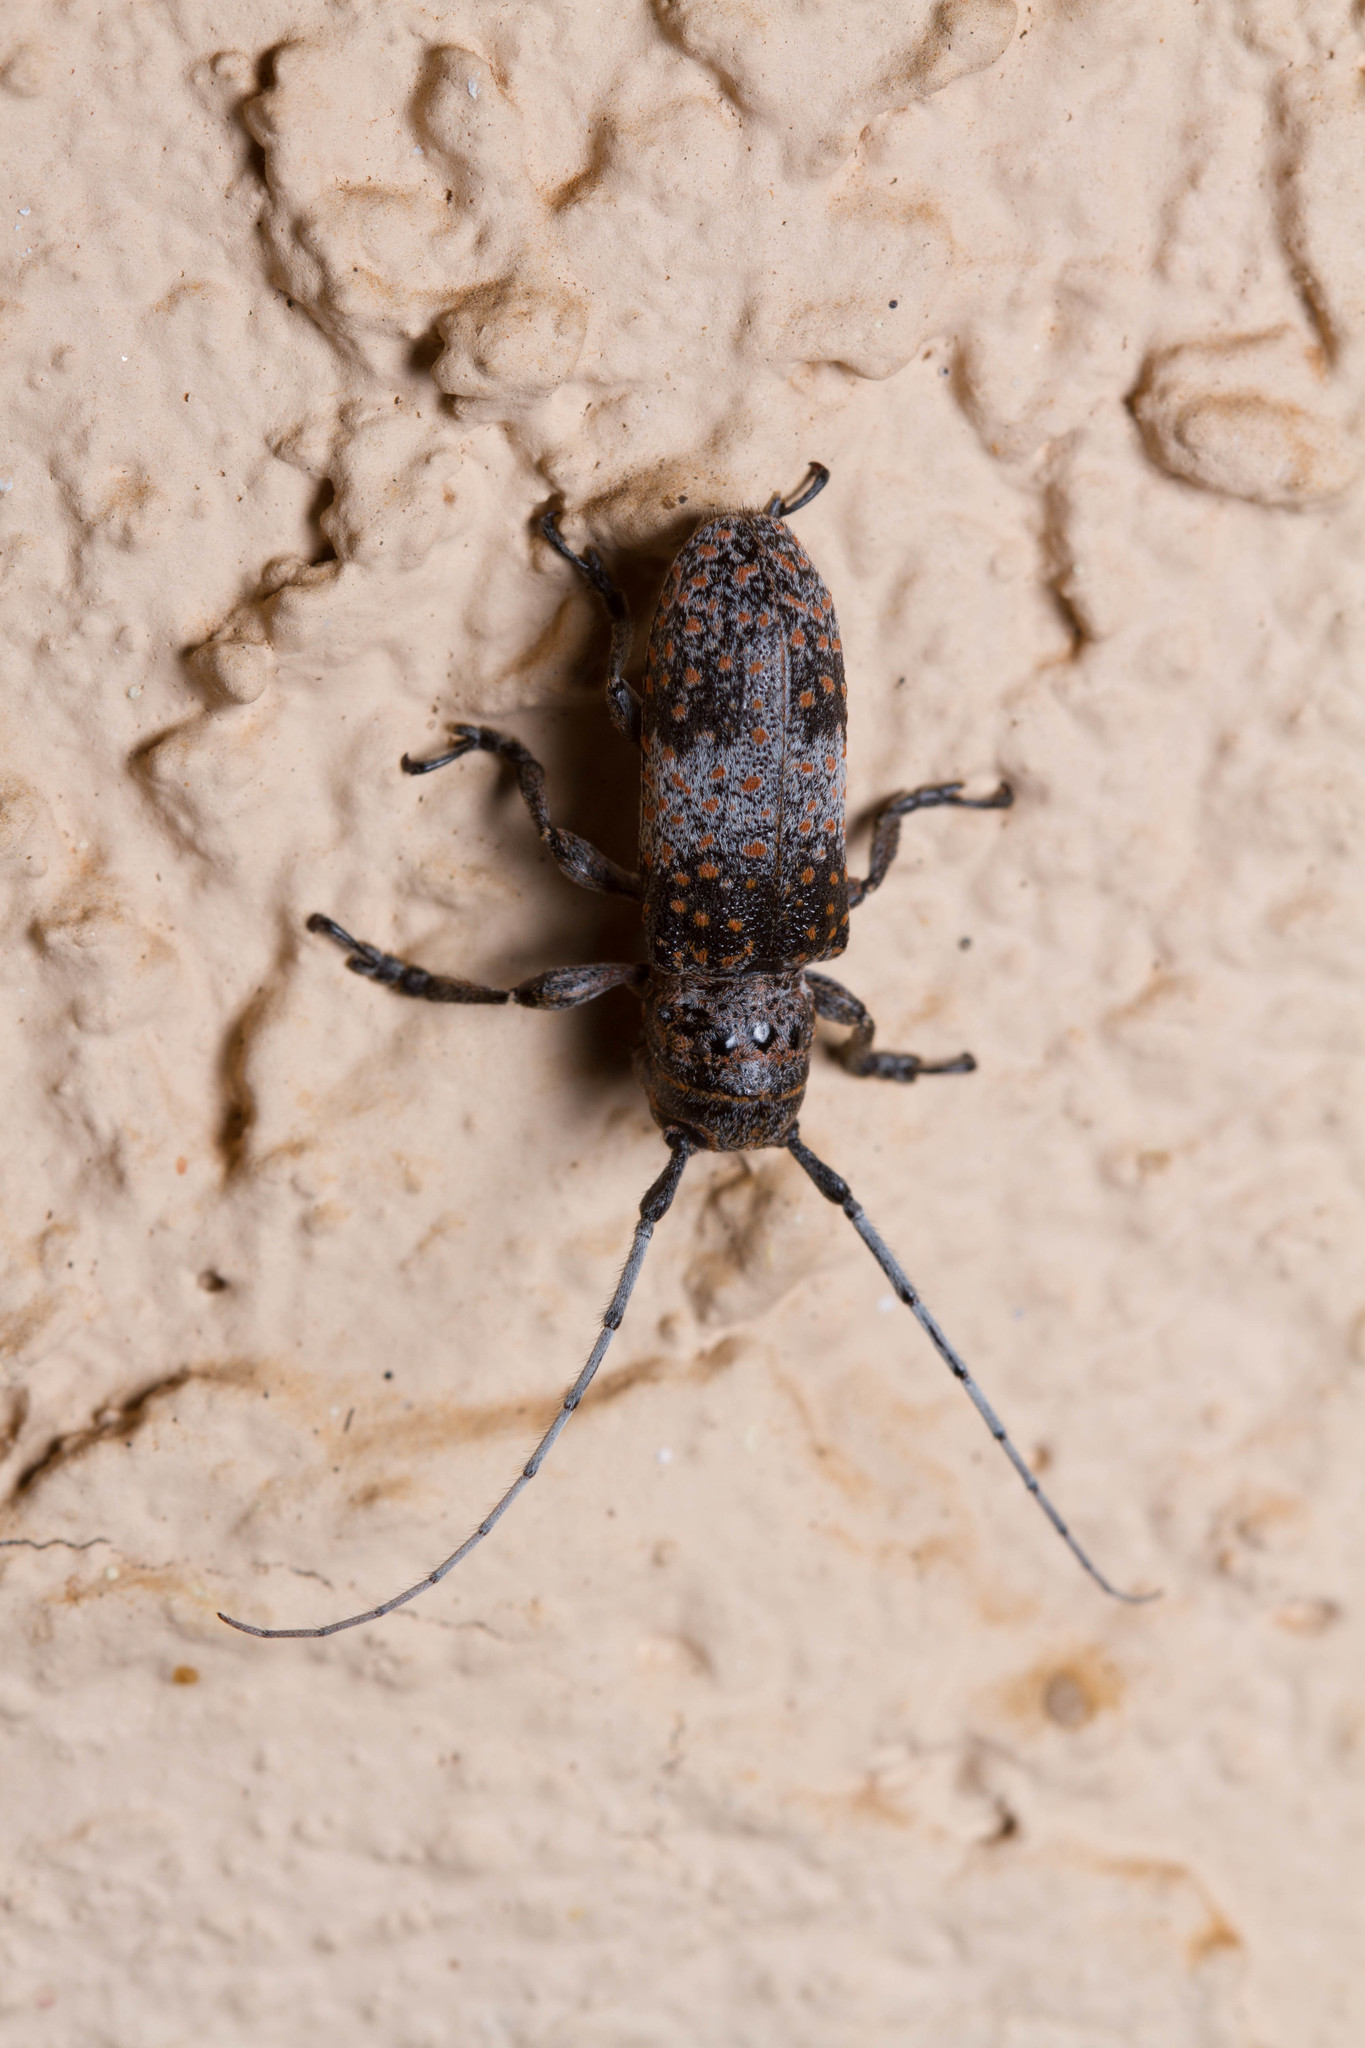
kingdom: Animalia
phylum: Arthropoda
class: Insecta
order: Coleoptera
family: Cerambycidae
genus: Oncideres
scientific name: Oncideres rhodosticta
